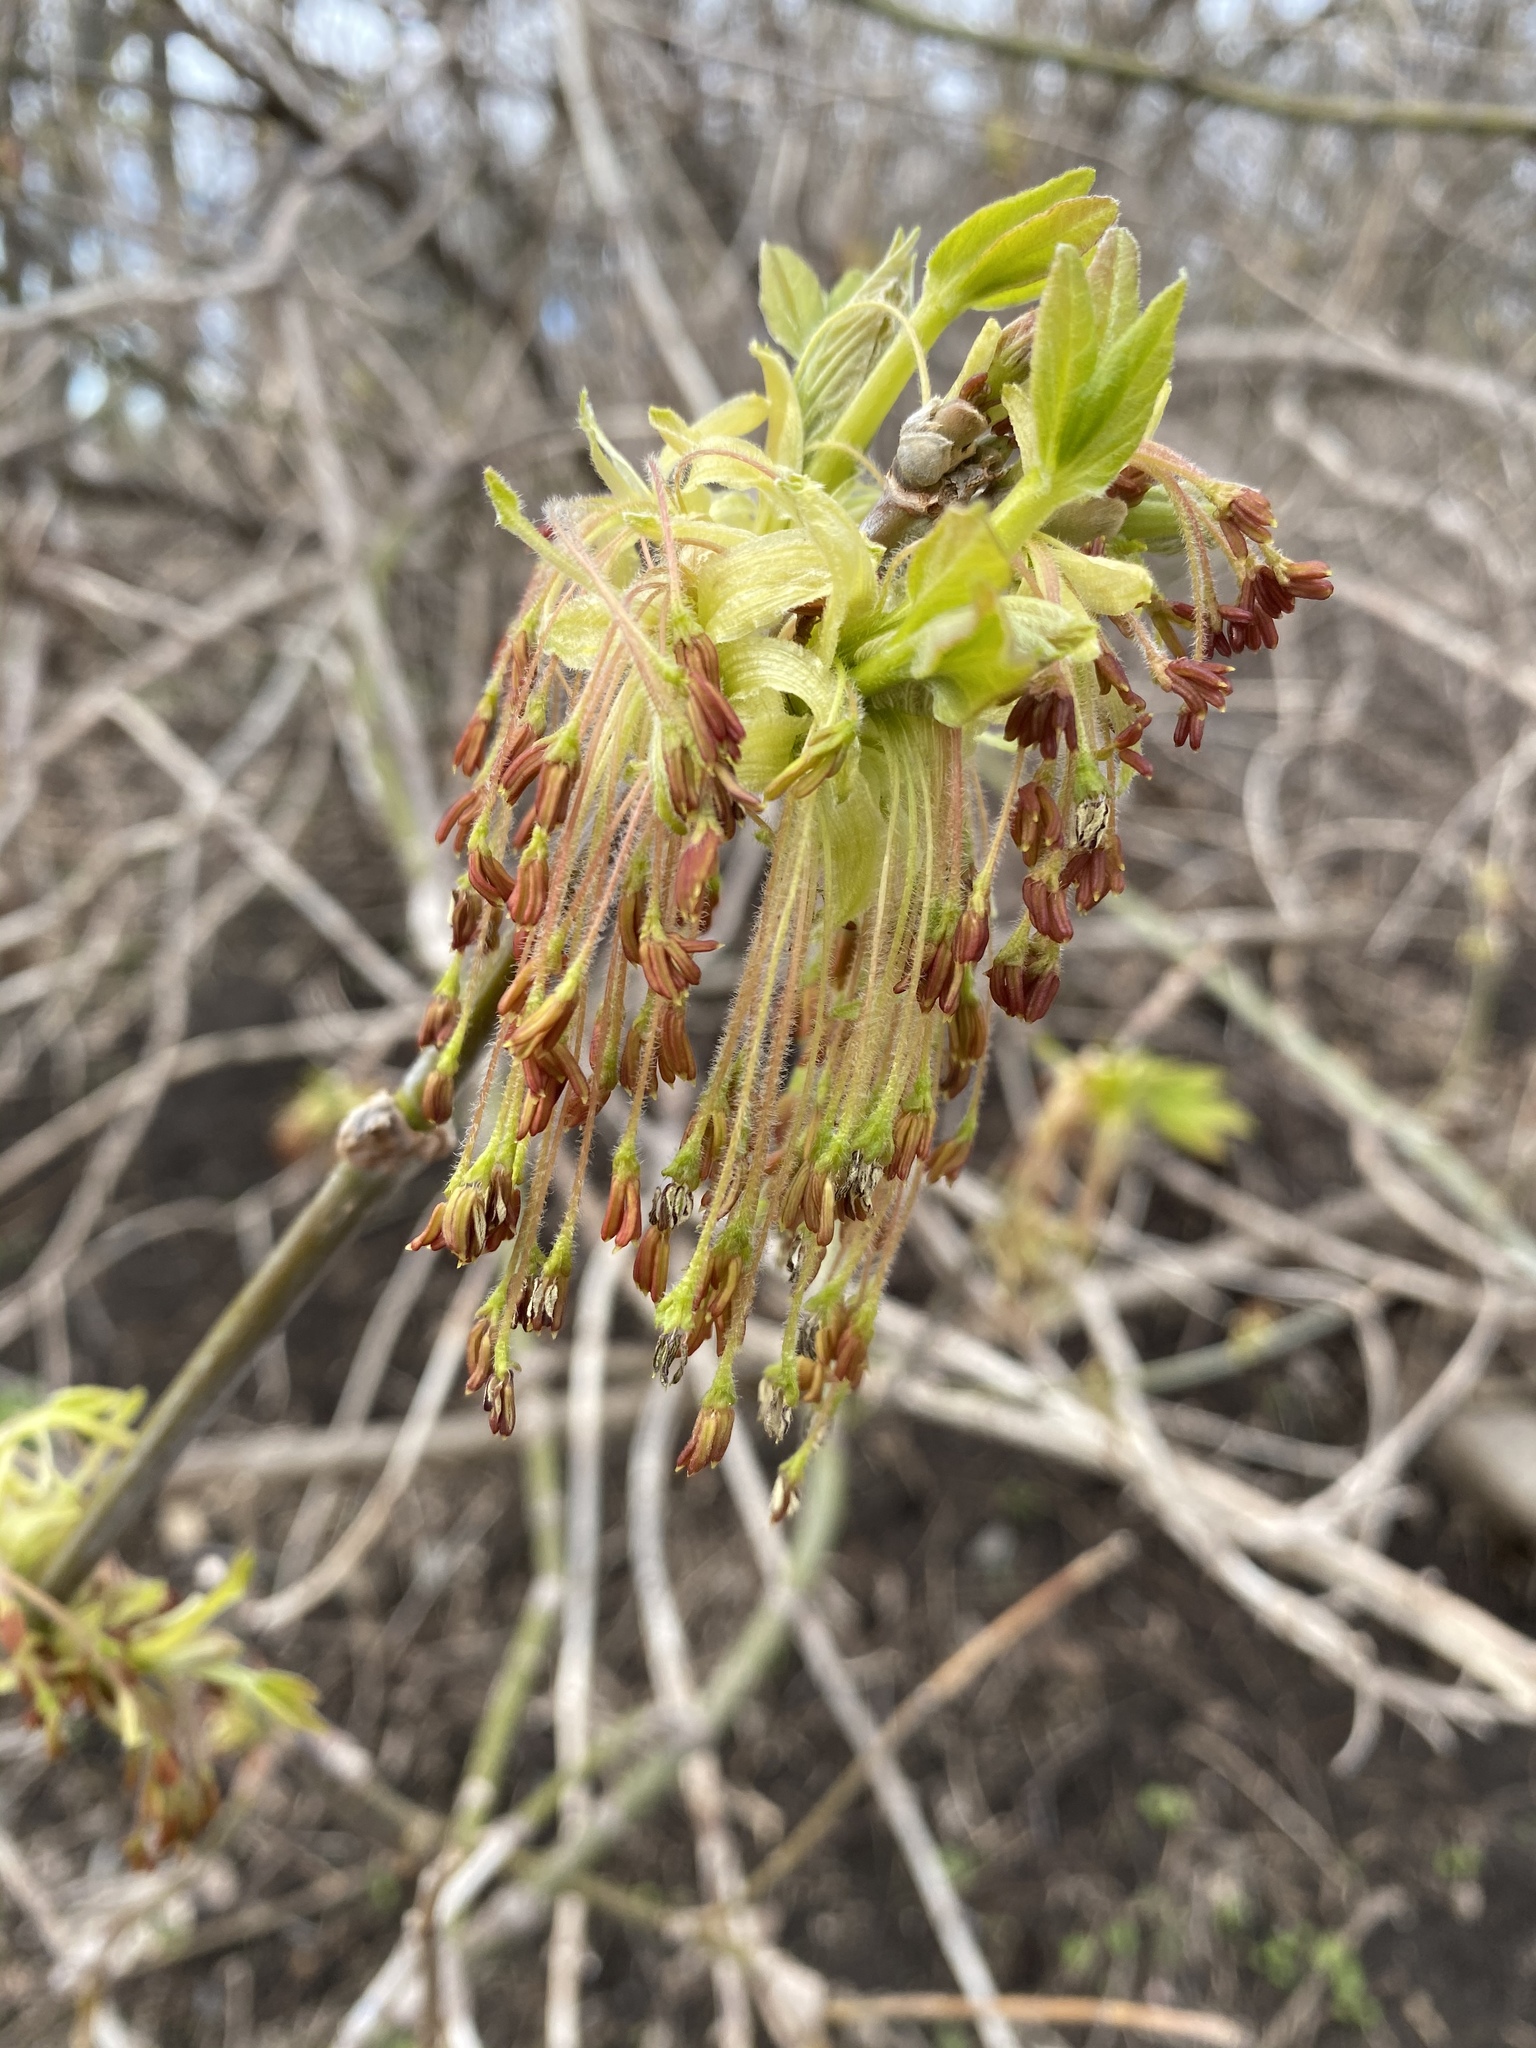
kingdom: Plantae
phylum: Tracheophyta
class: Magnoliopsida
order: Sapindales
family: Sapindaceae
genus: Acer
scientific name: Acer negundo
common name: Ashleaf maple
